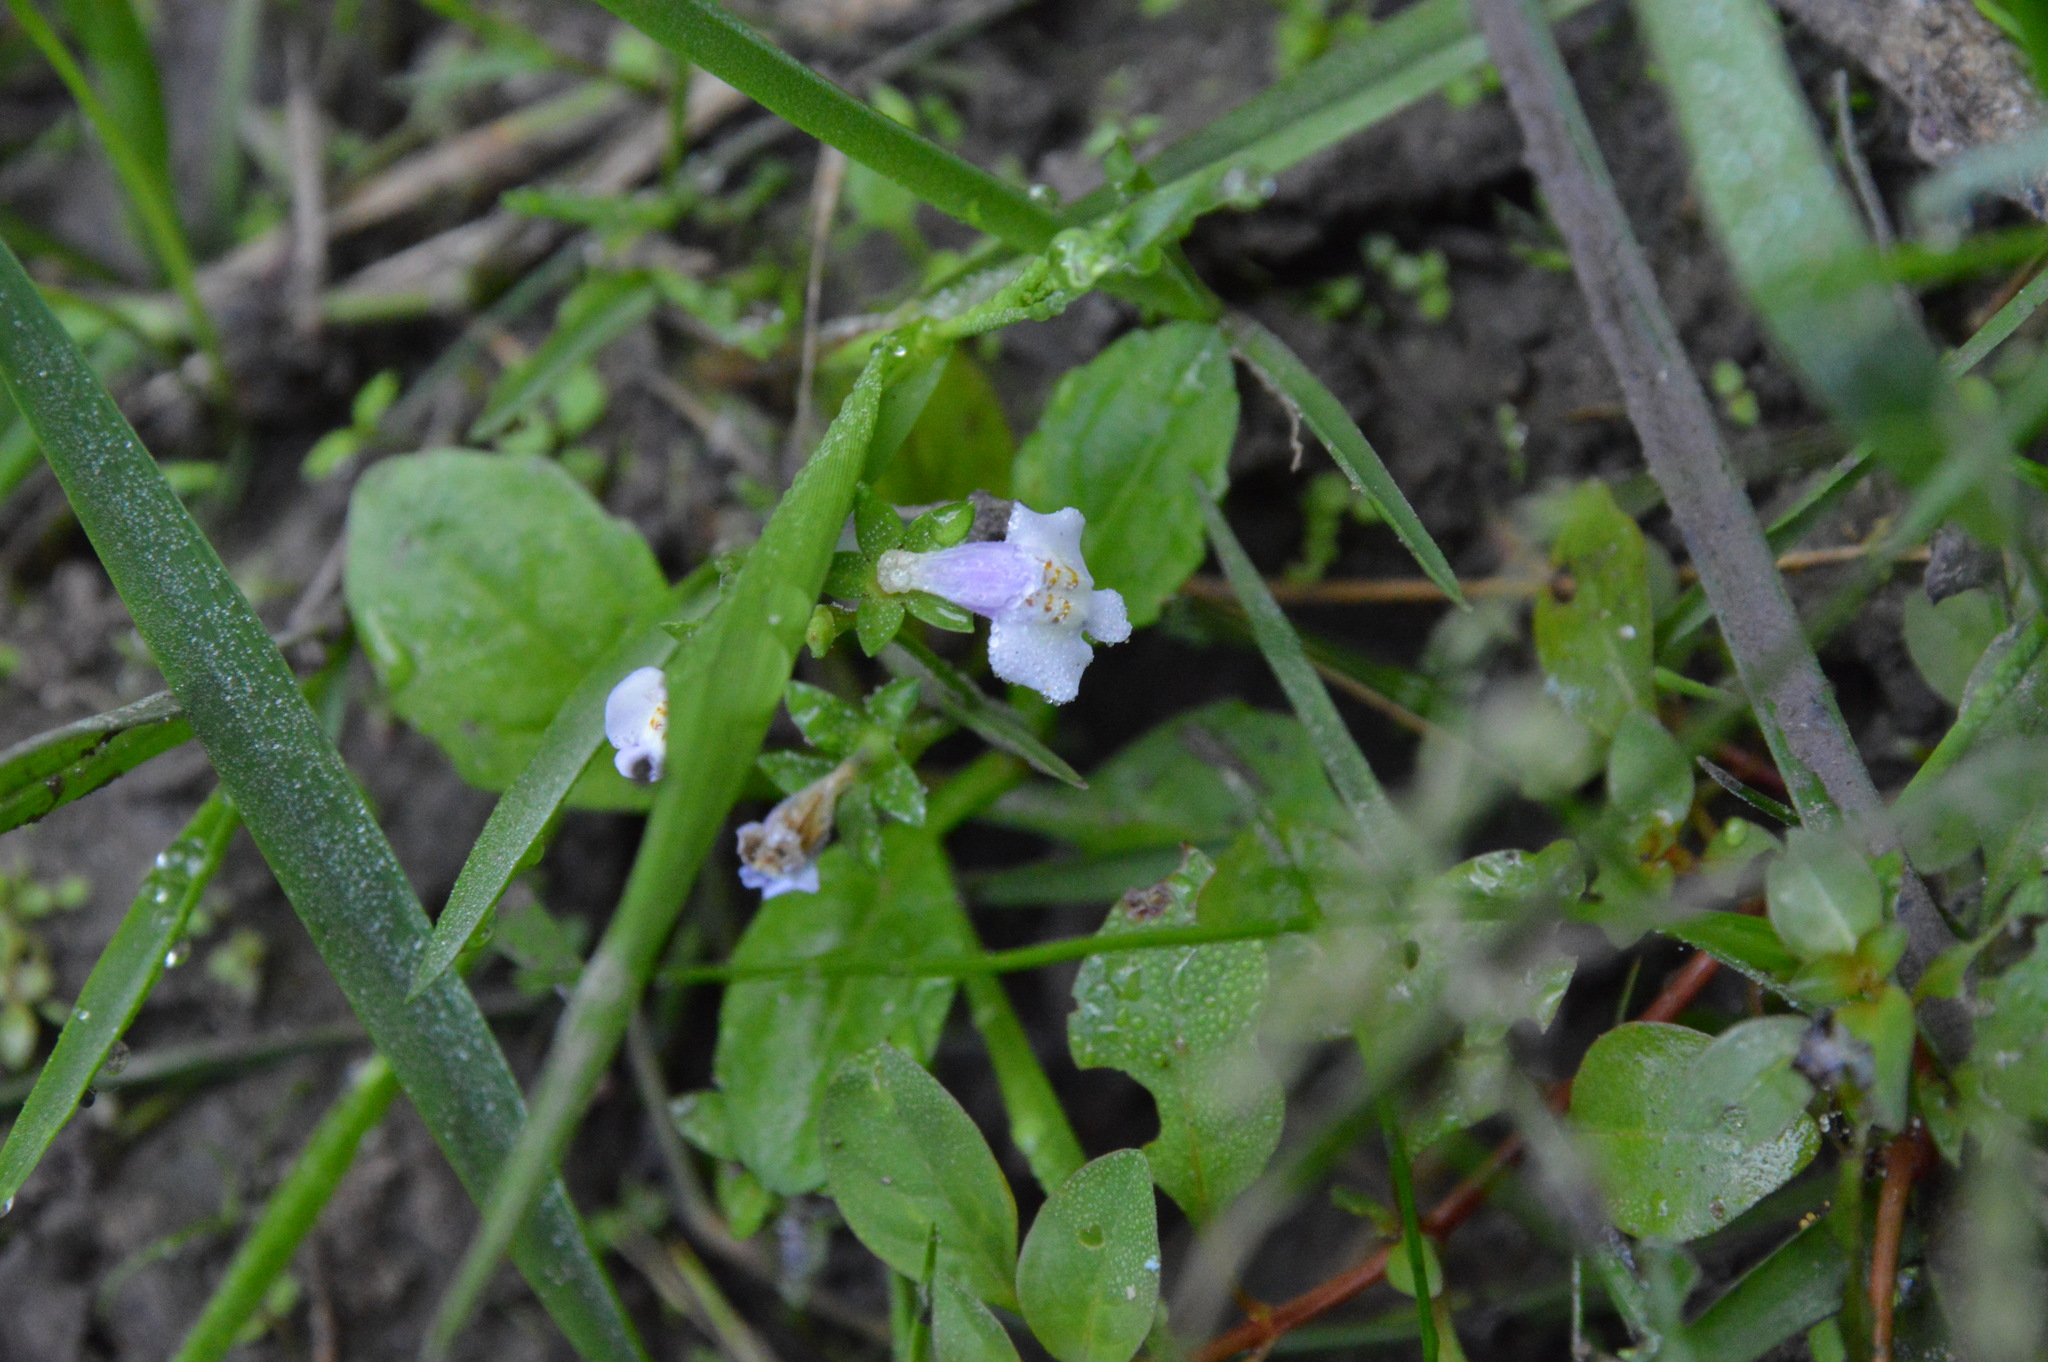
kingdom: Plantae
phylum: Tracheophyta
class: Magnoliopsida
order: Lamiales
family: Mazaceae
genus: Mazus
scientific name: Mazus pumilus
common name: Japanese mazus
